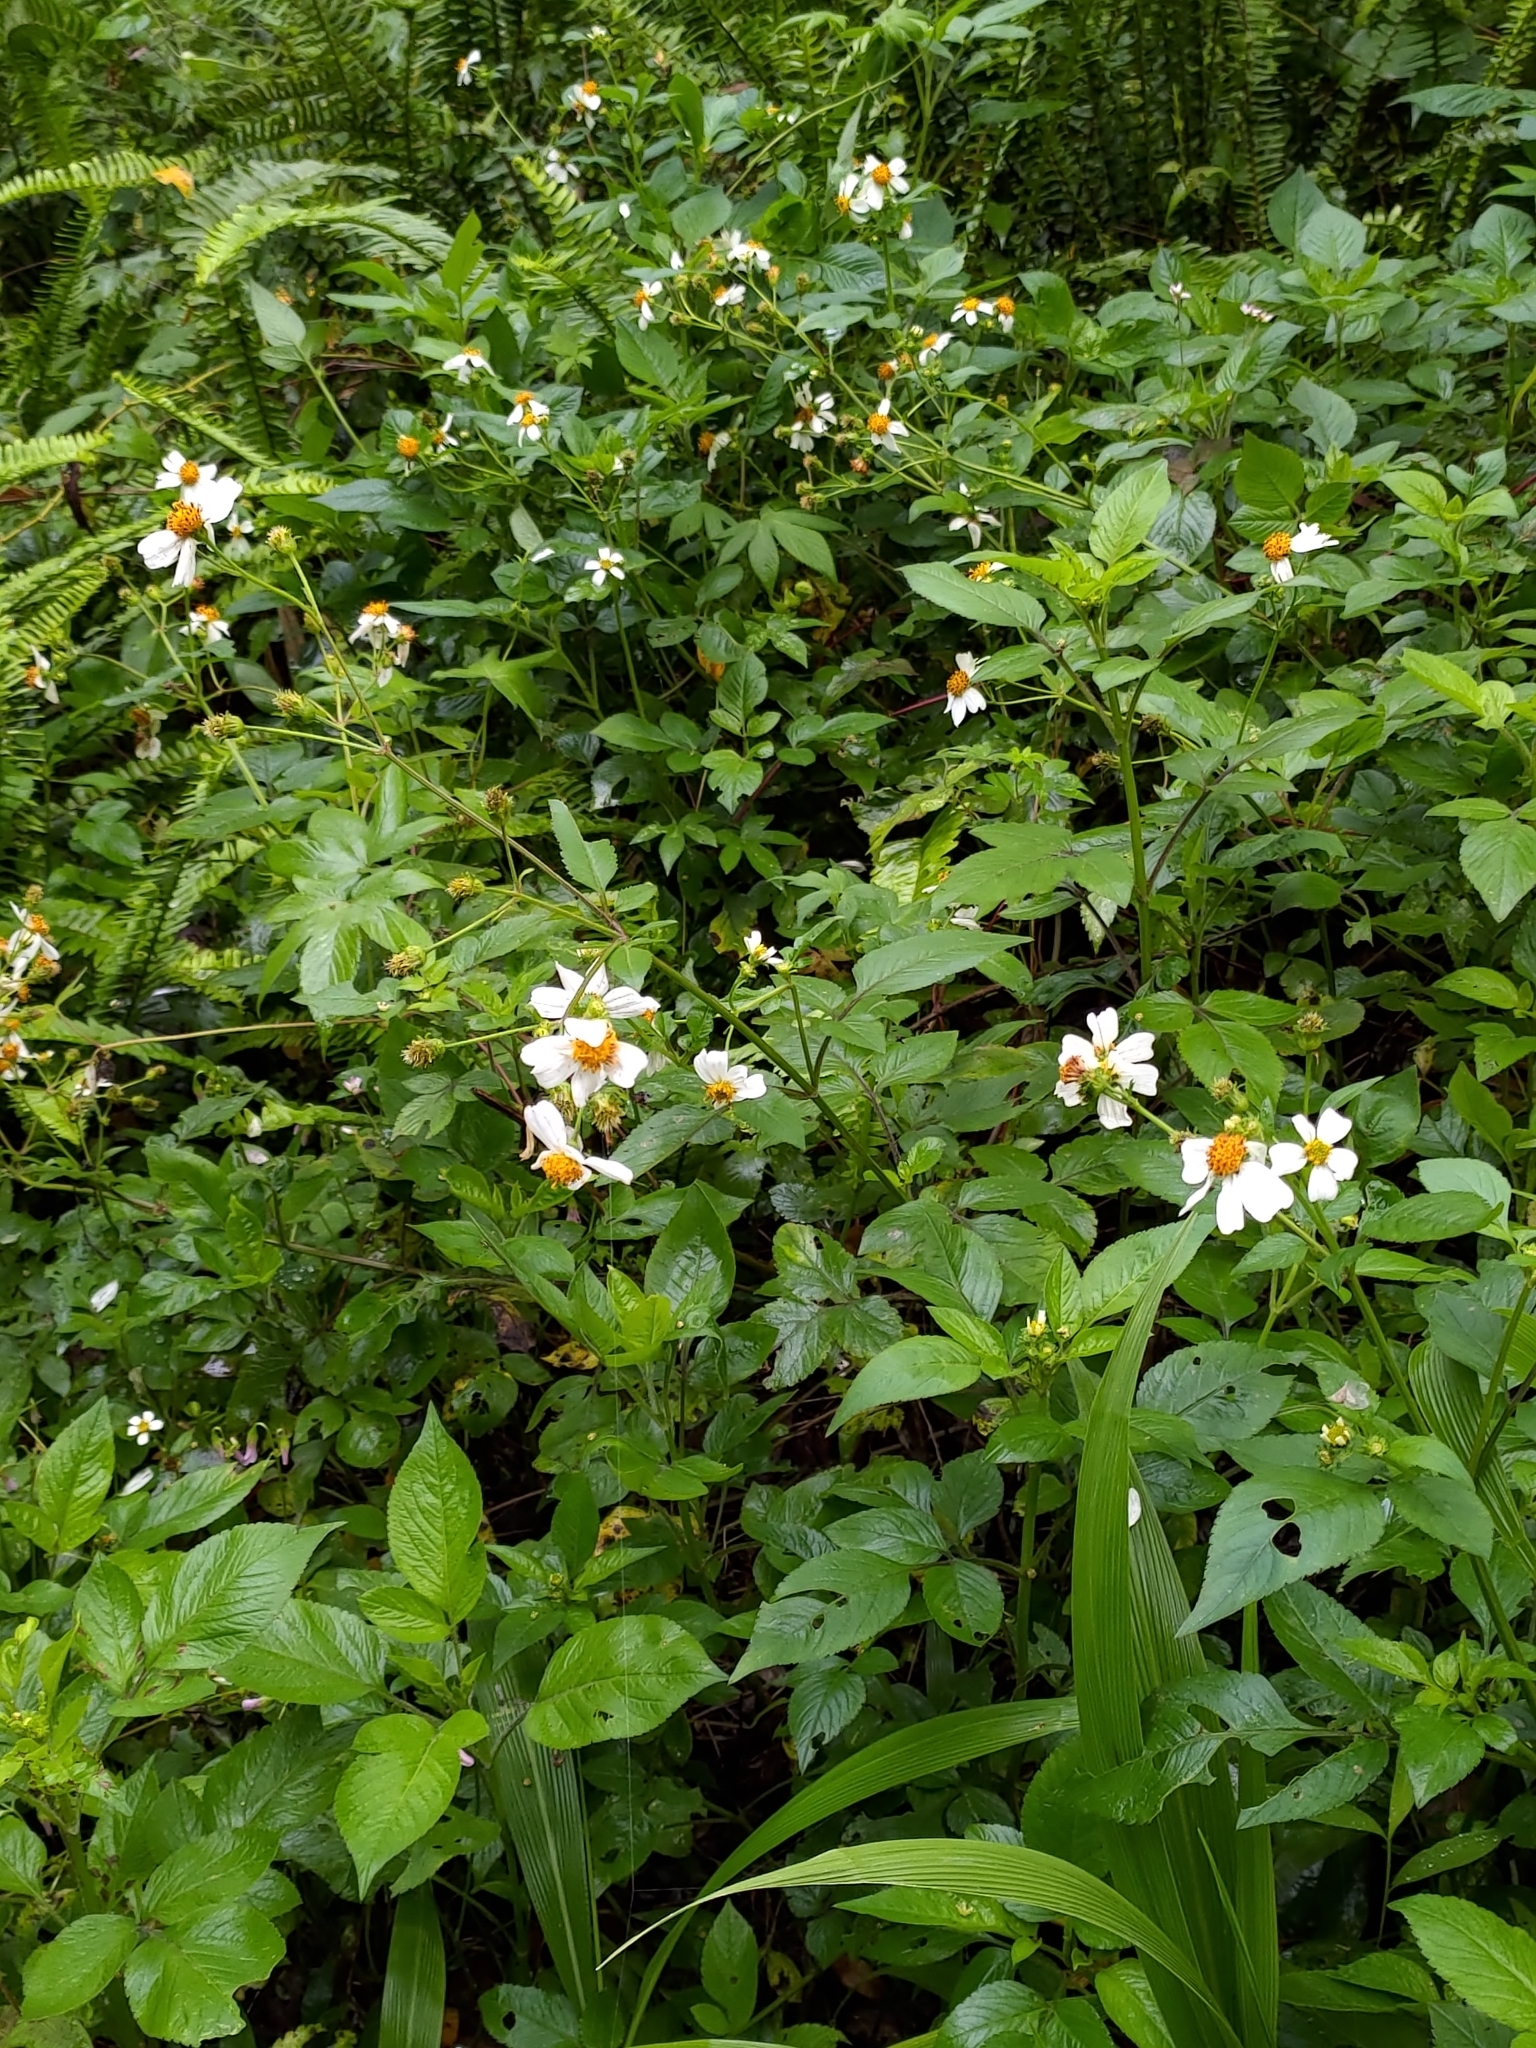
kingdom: Plantae
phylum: Tracheophyta
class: Magnoliopsida
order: Asterales
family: Asteraceae
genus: Bidens
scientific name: Bidens alba
